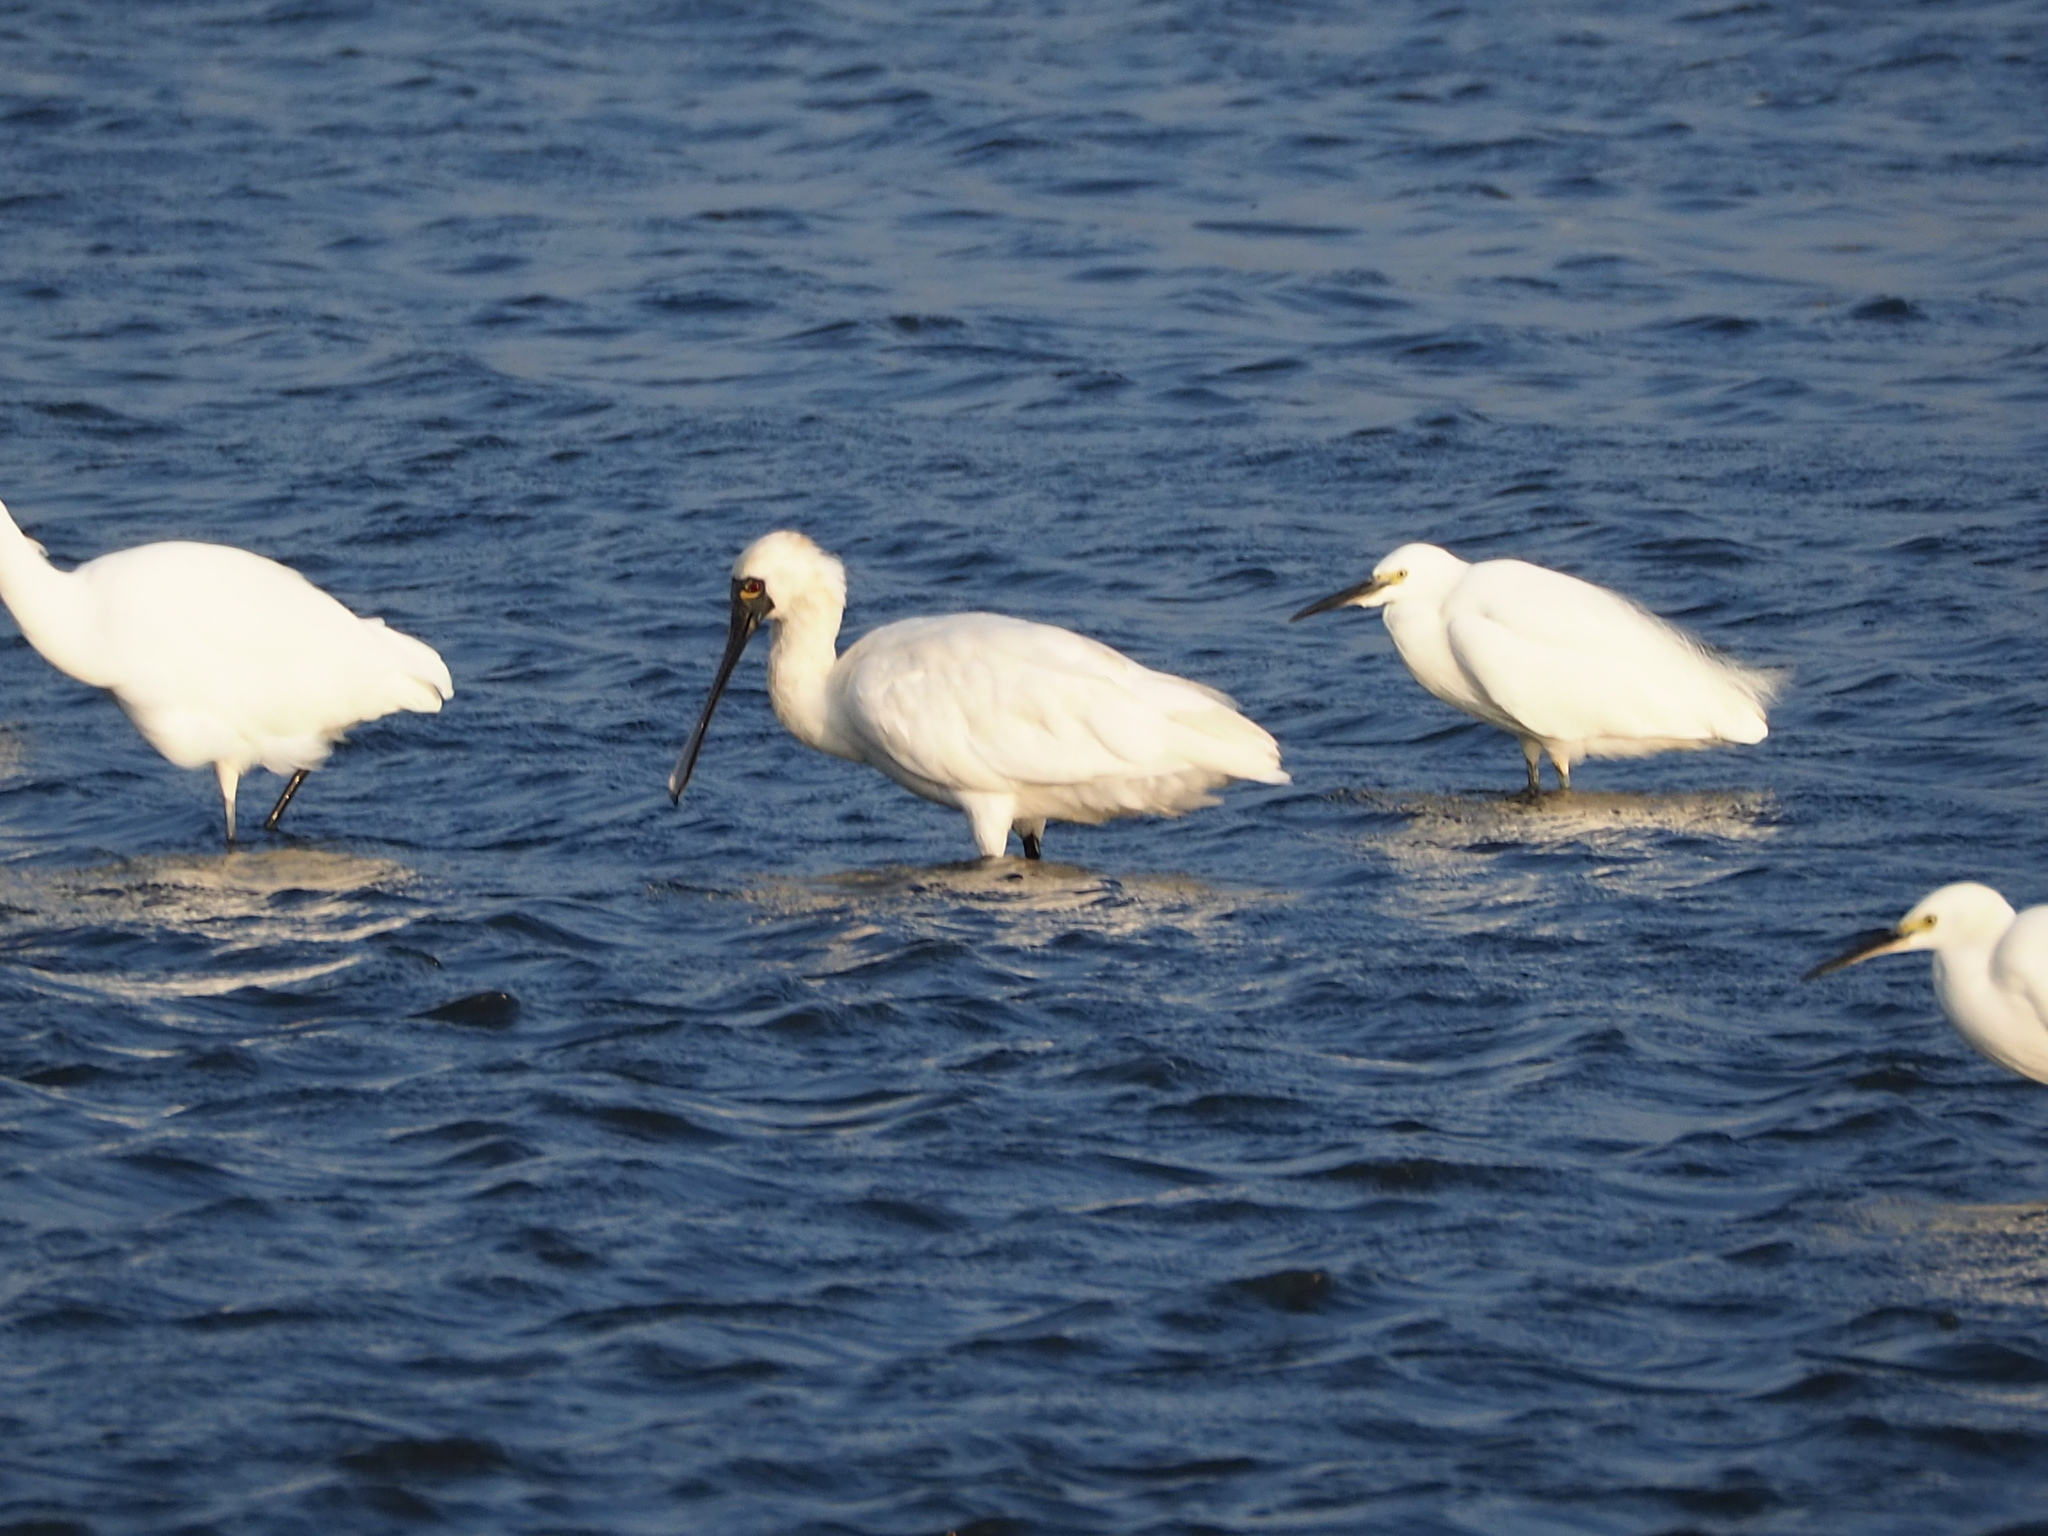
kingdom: Animalia
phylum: Chordata
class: Aves
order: Pelecaniformes
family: Threskiornithidae
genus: Platalea
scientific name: Platalea minor
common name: Black-faced spoonbill
